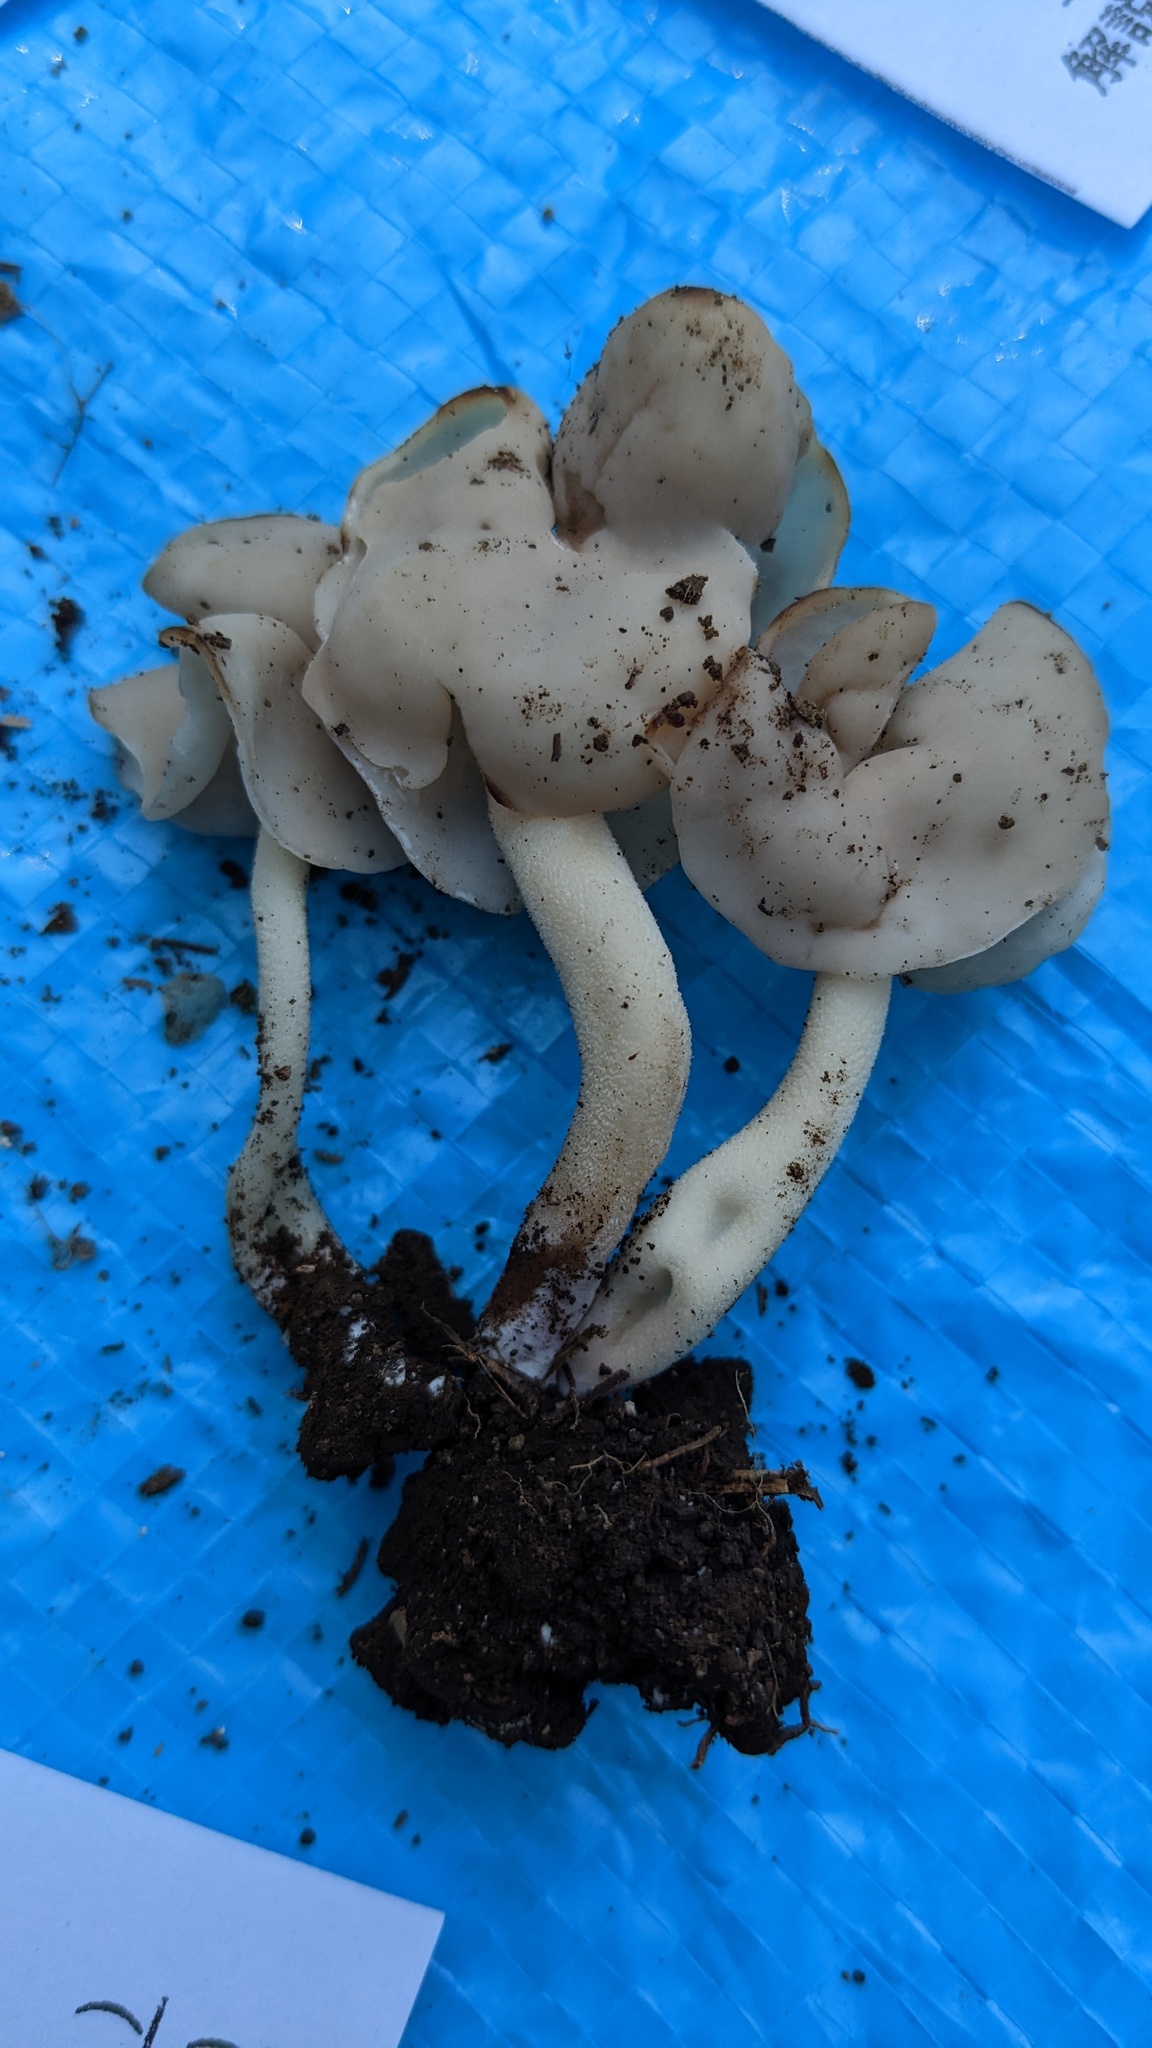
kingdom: Fungi
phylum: Ascomycota
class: Pezizomycetes
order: Pezizales
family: Helvellaceae
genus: Helvella
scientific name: Helvella elastica
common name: Elastic saddle
